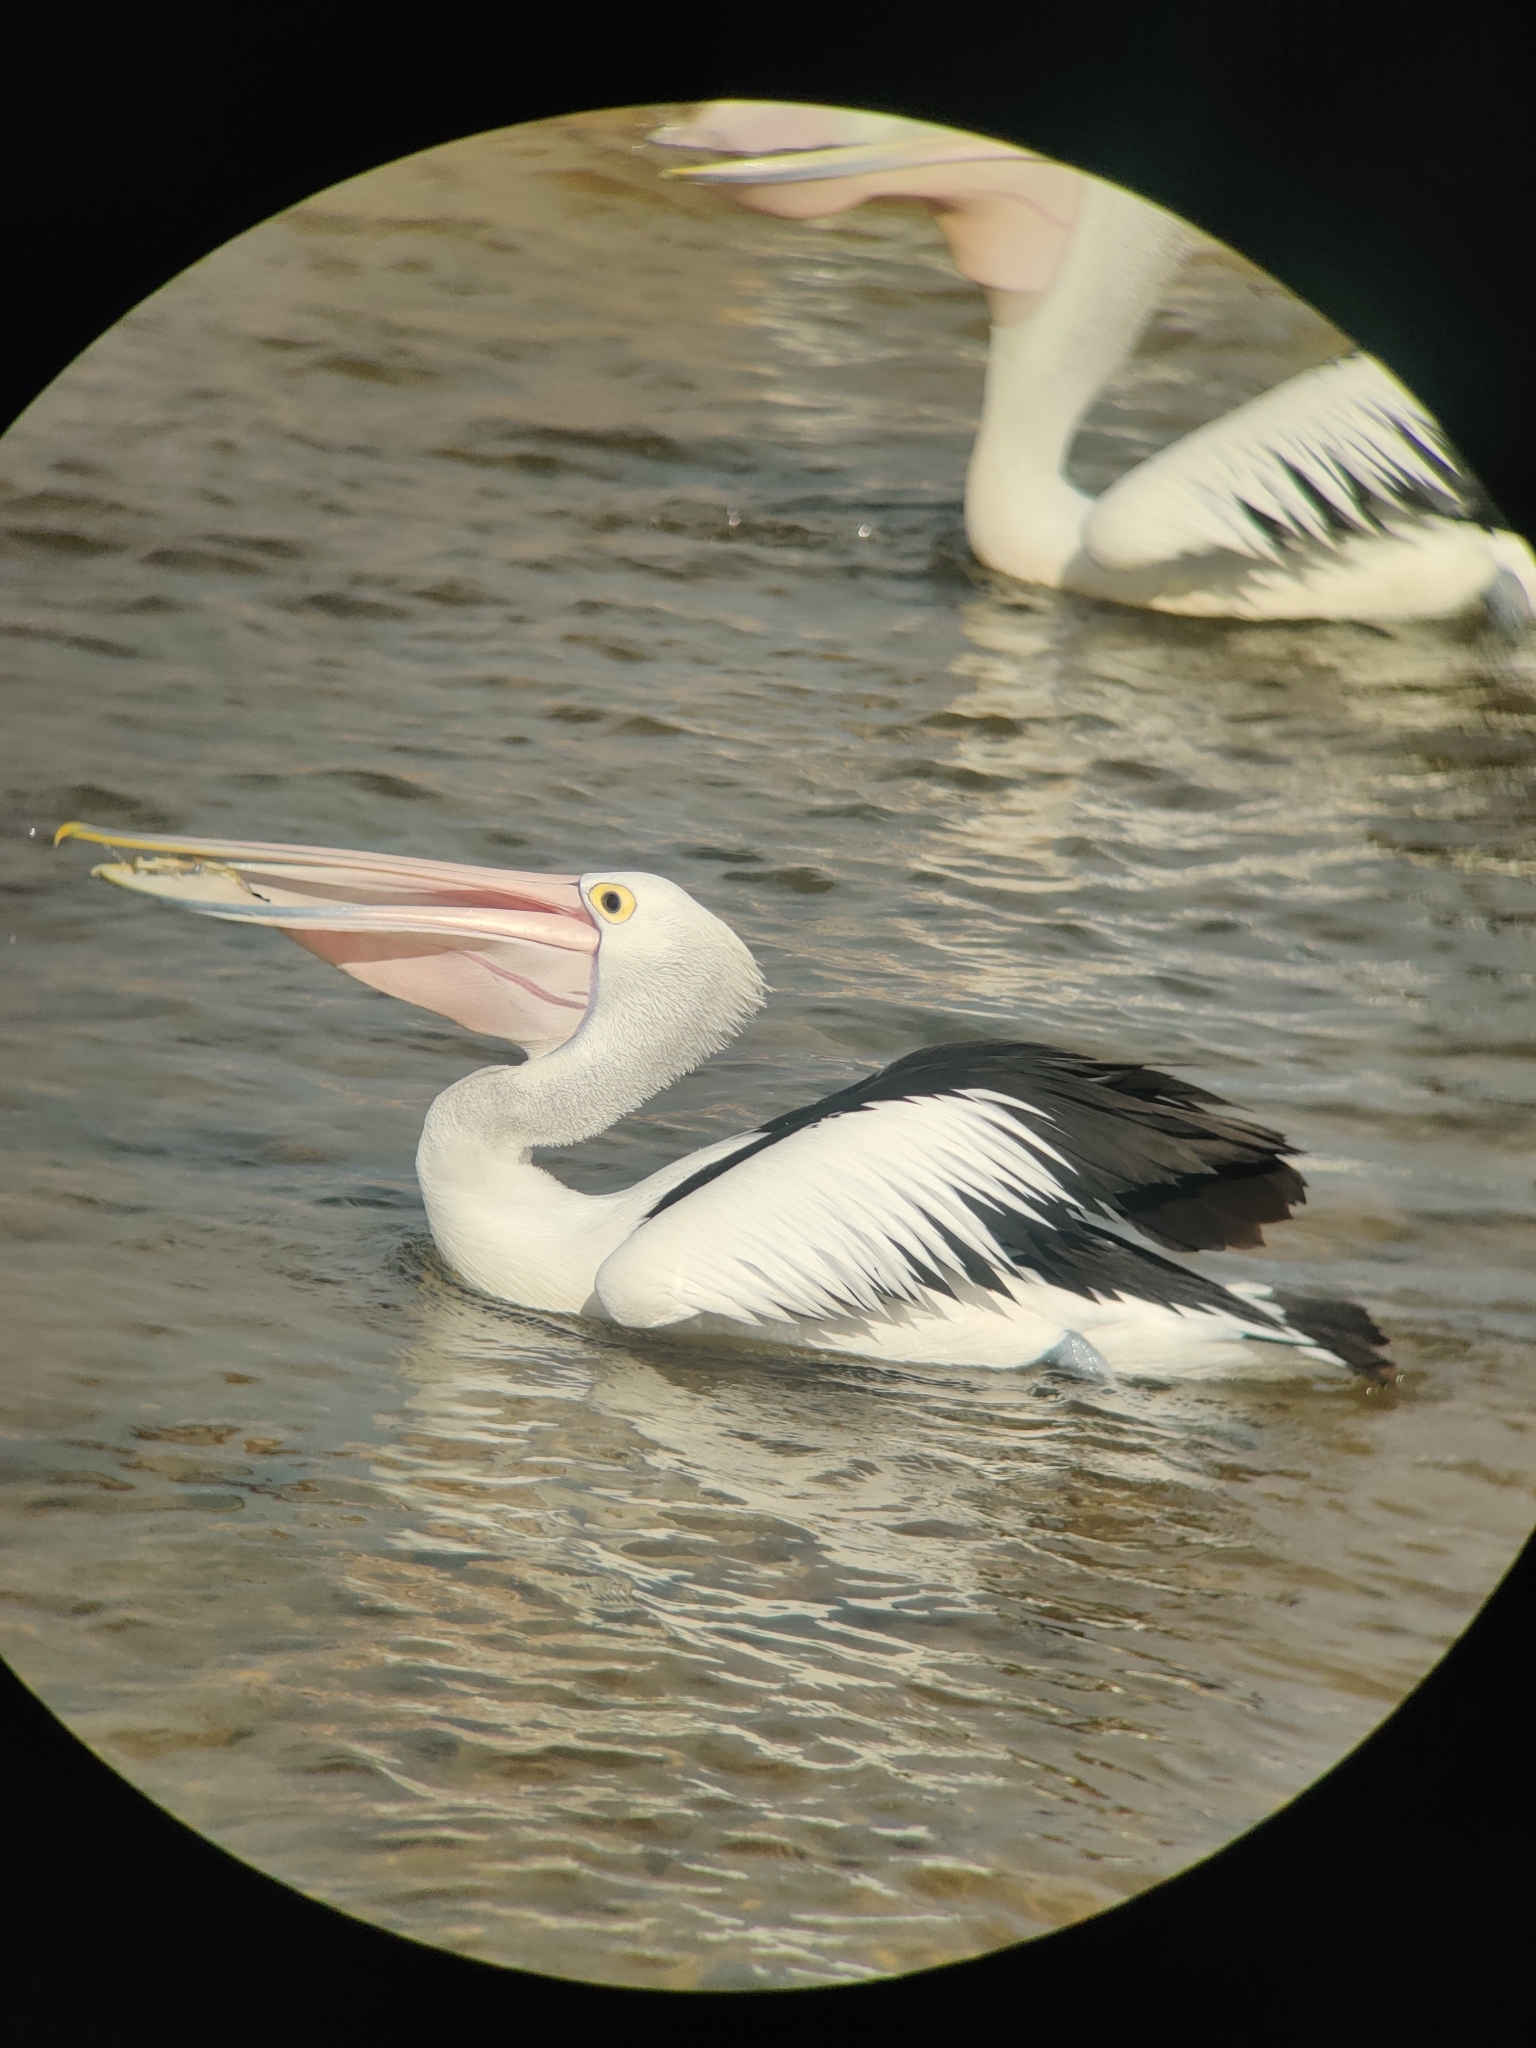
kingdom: Animalia
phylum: Chordata
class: Aves
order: Pelecaniformes
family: Pelecanidae
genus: Pelecanus
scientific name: Pelecanus conspicillatus
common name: Australian pelican
